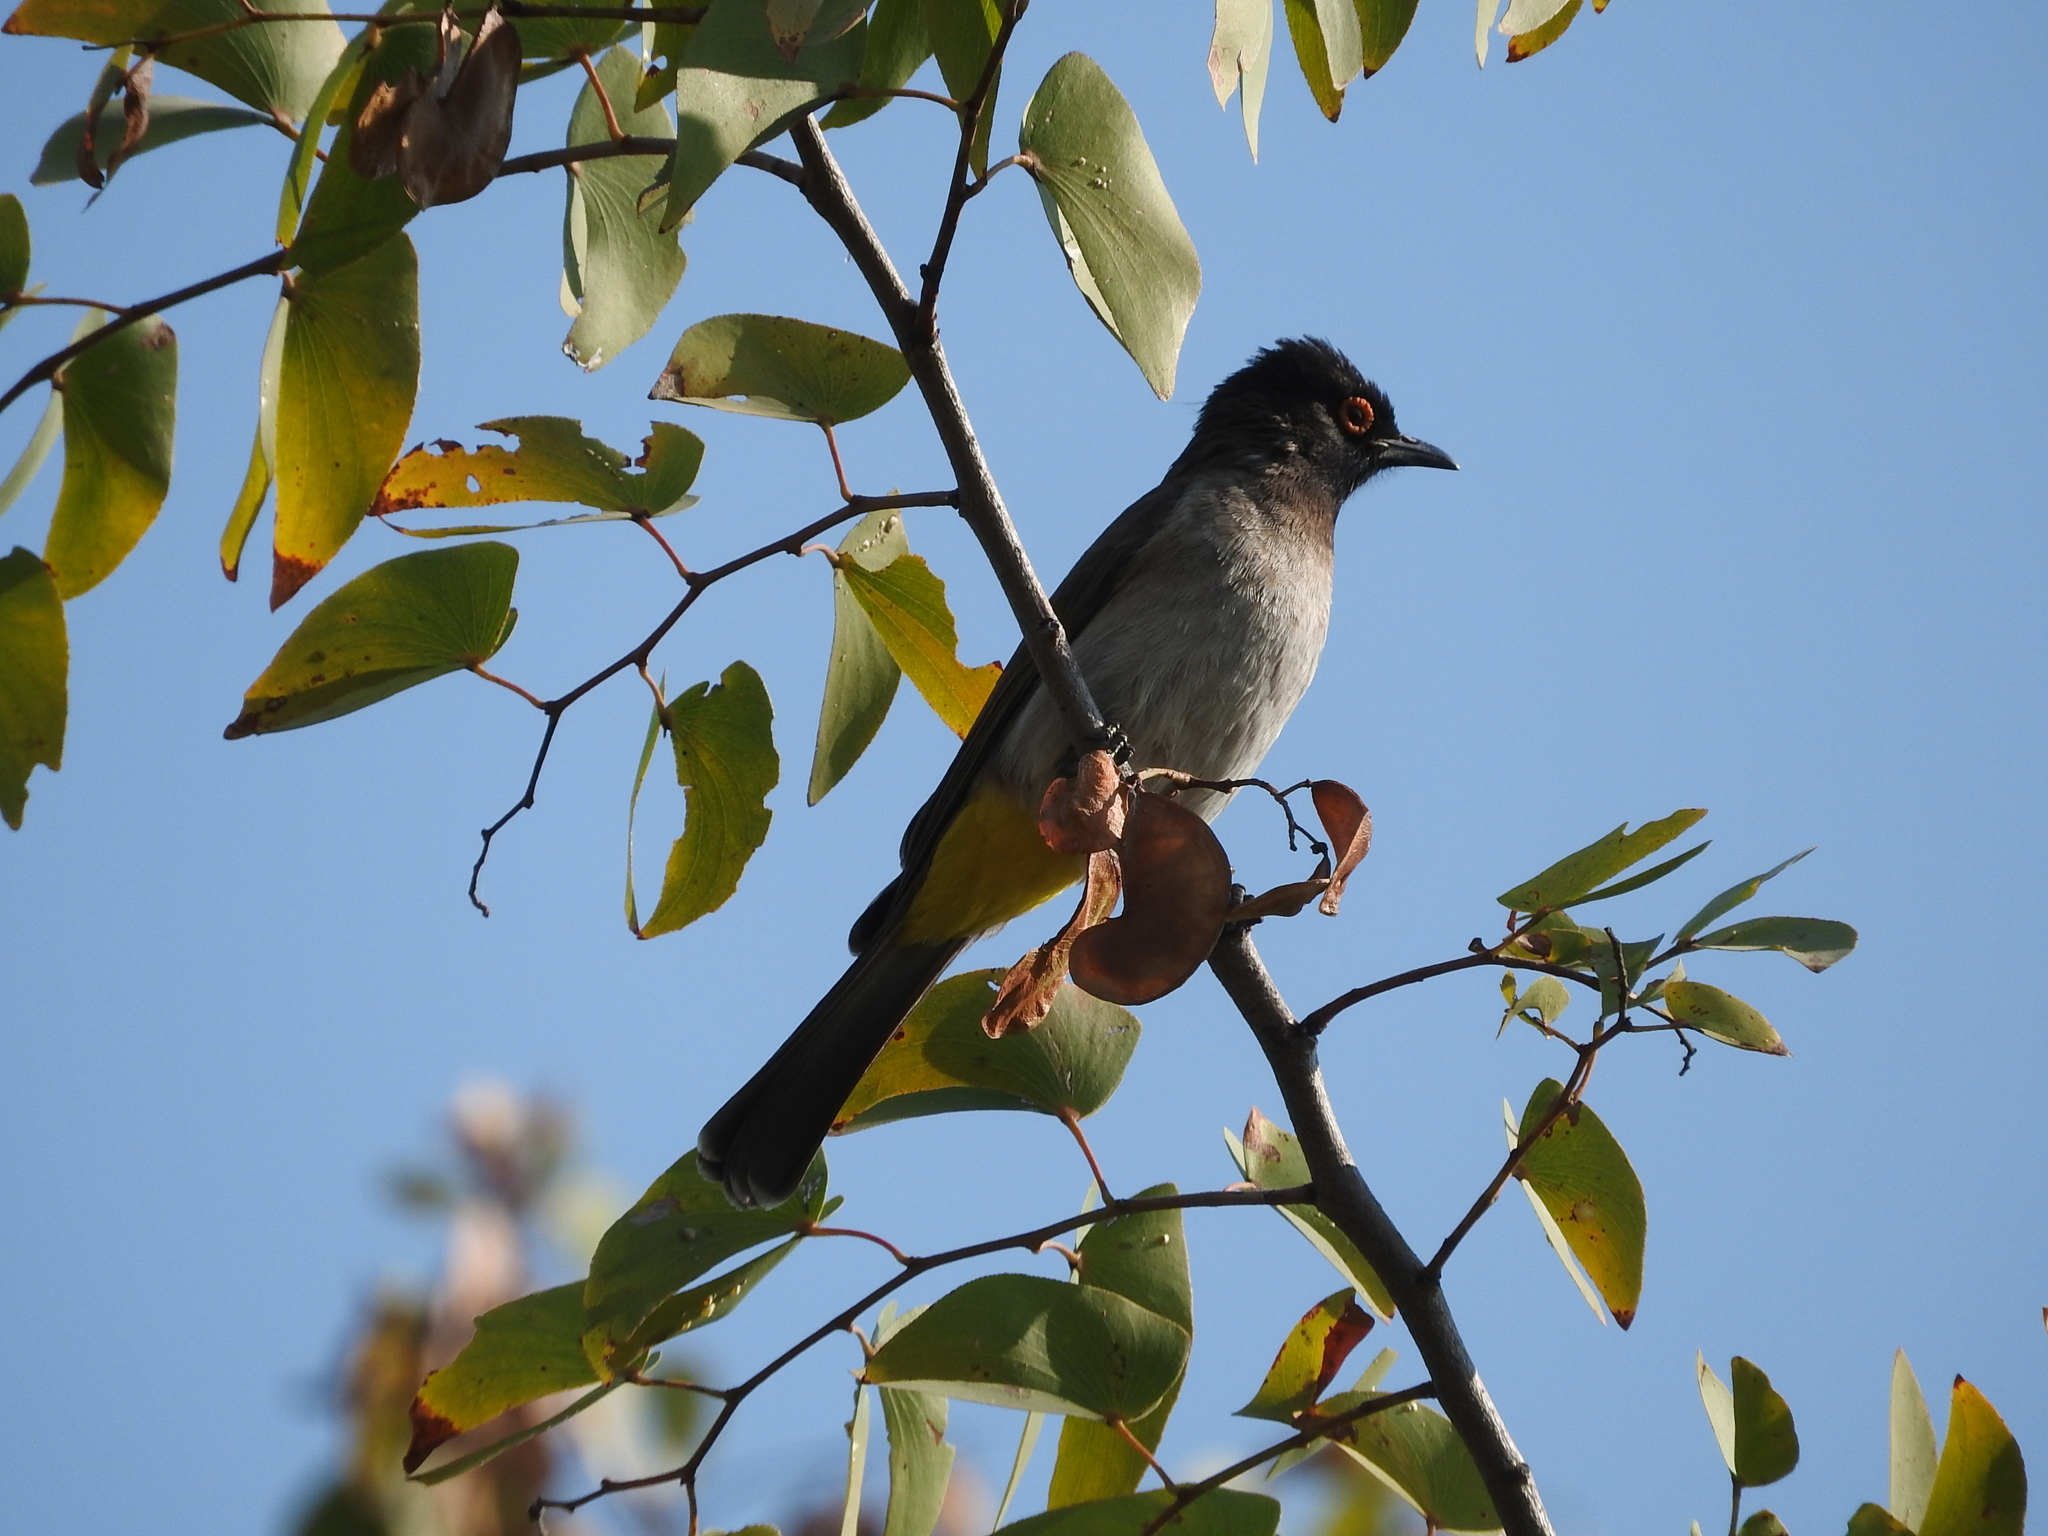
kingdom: Animalia
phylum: Chordata
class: Aves
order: Passeriformes
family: Pycnonotidae
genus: Pycnonotus
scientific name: Pycnonotus nigricans
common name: African red-eyed bulbul
